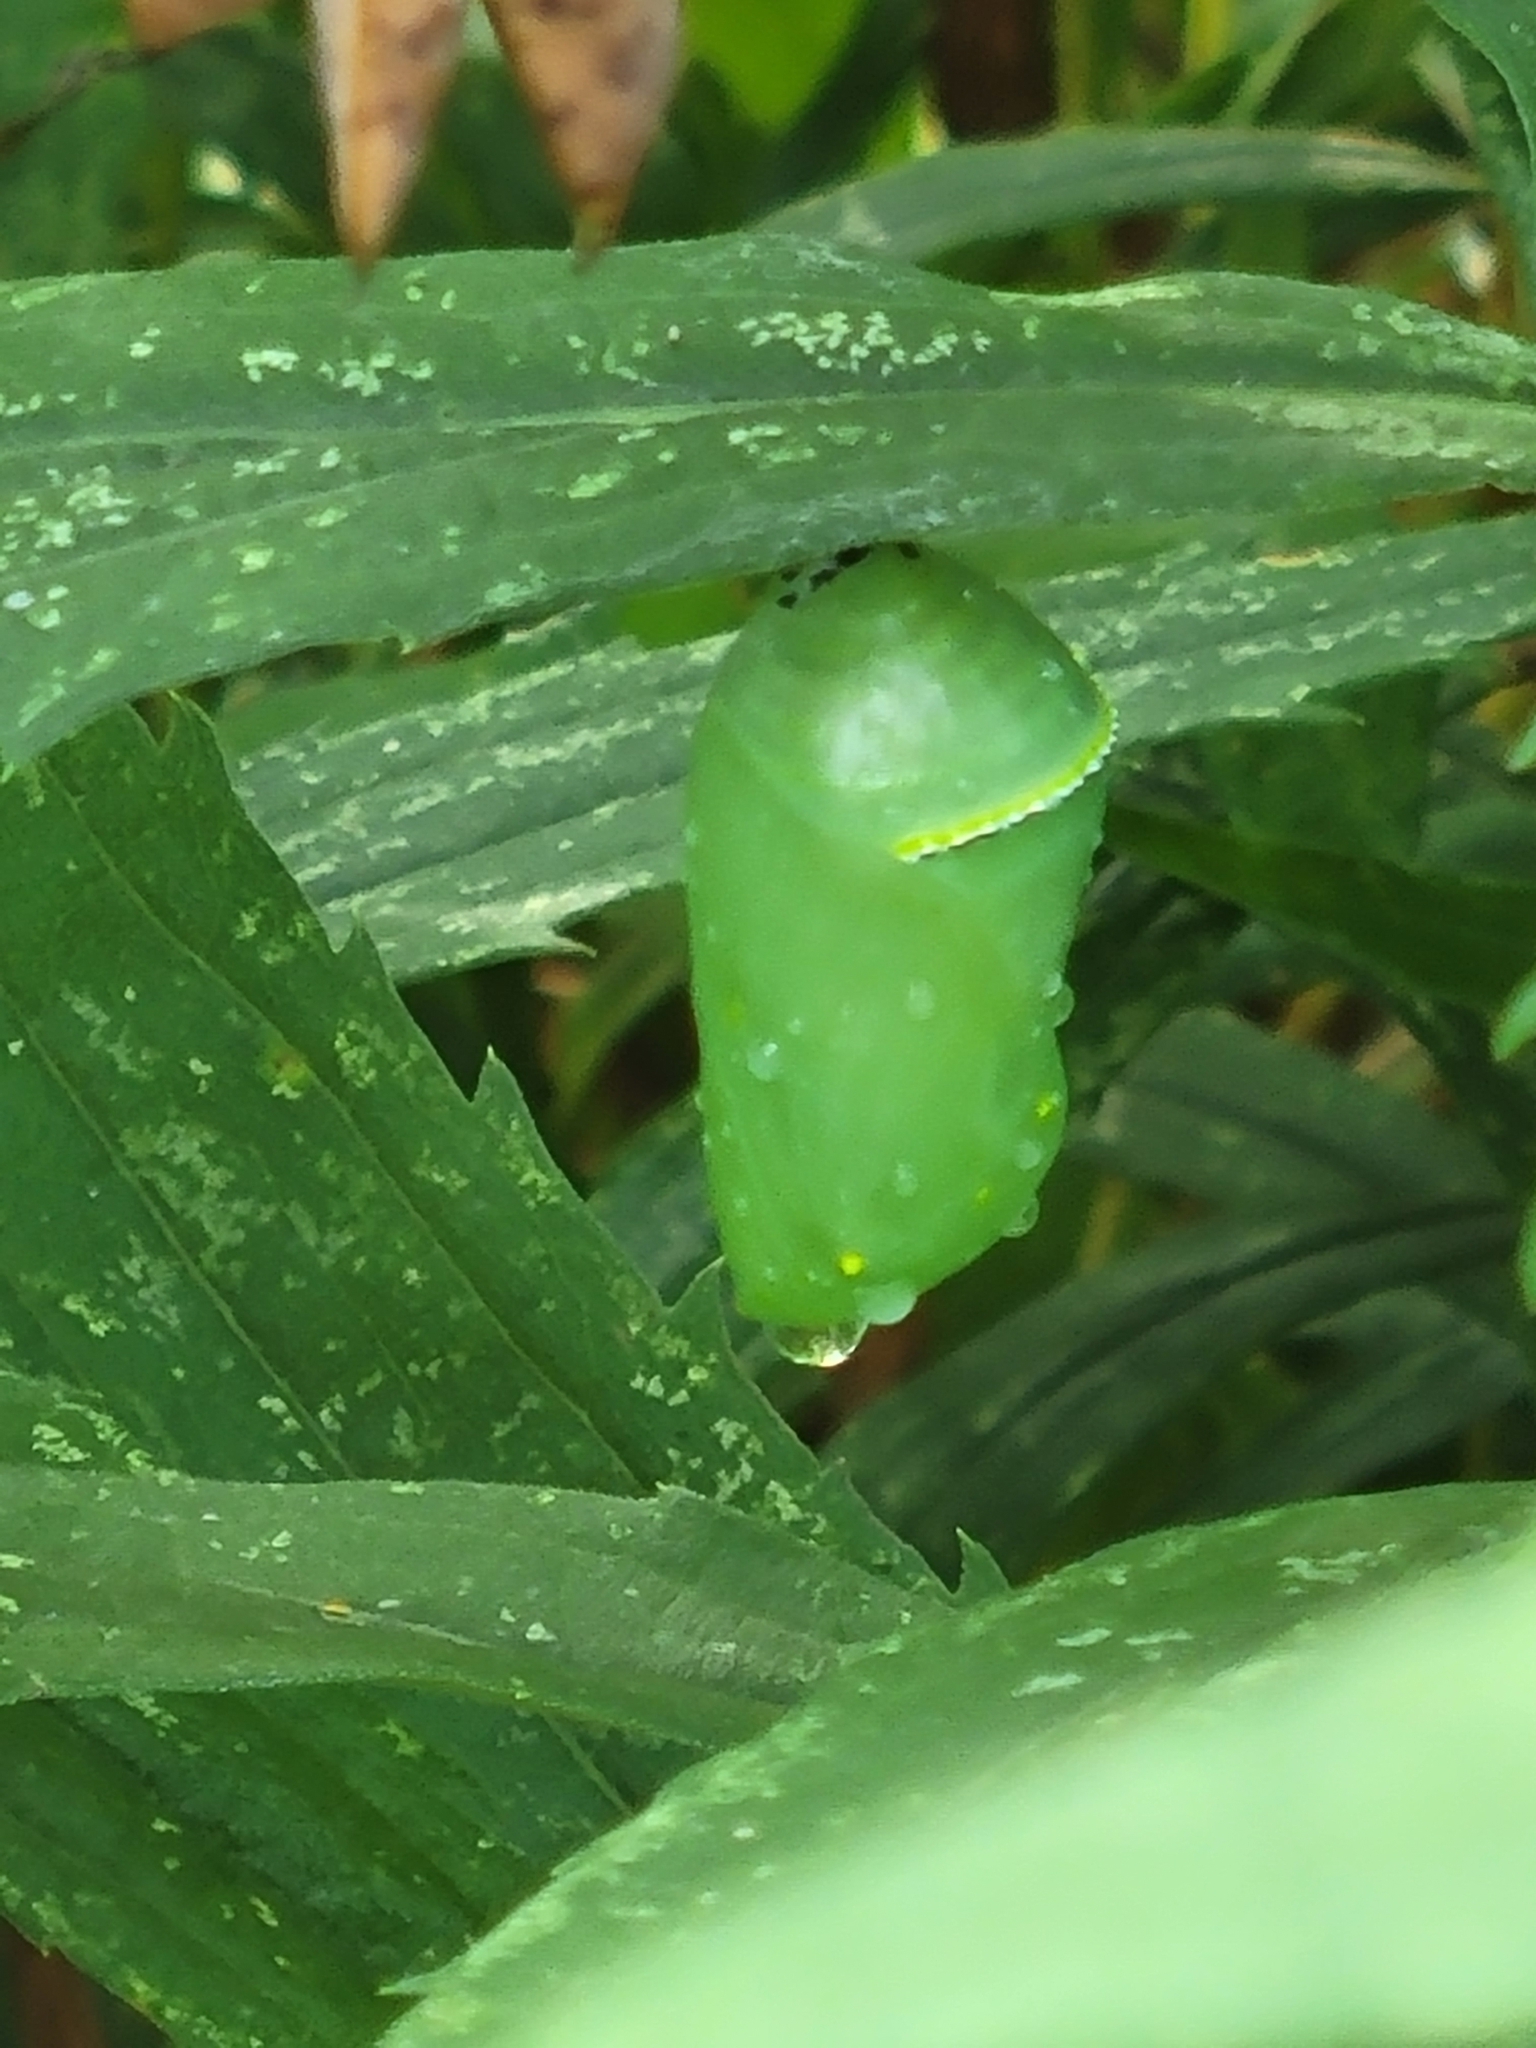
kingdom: Animalia
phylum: Arthropoda
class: Insecta
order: Lepidoptera
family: Nymphalidae
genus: Danaus
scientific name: Danaus plexippus
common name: Monarch
